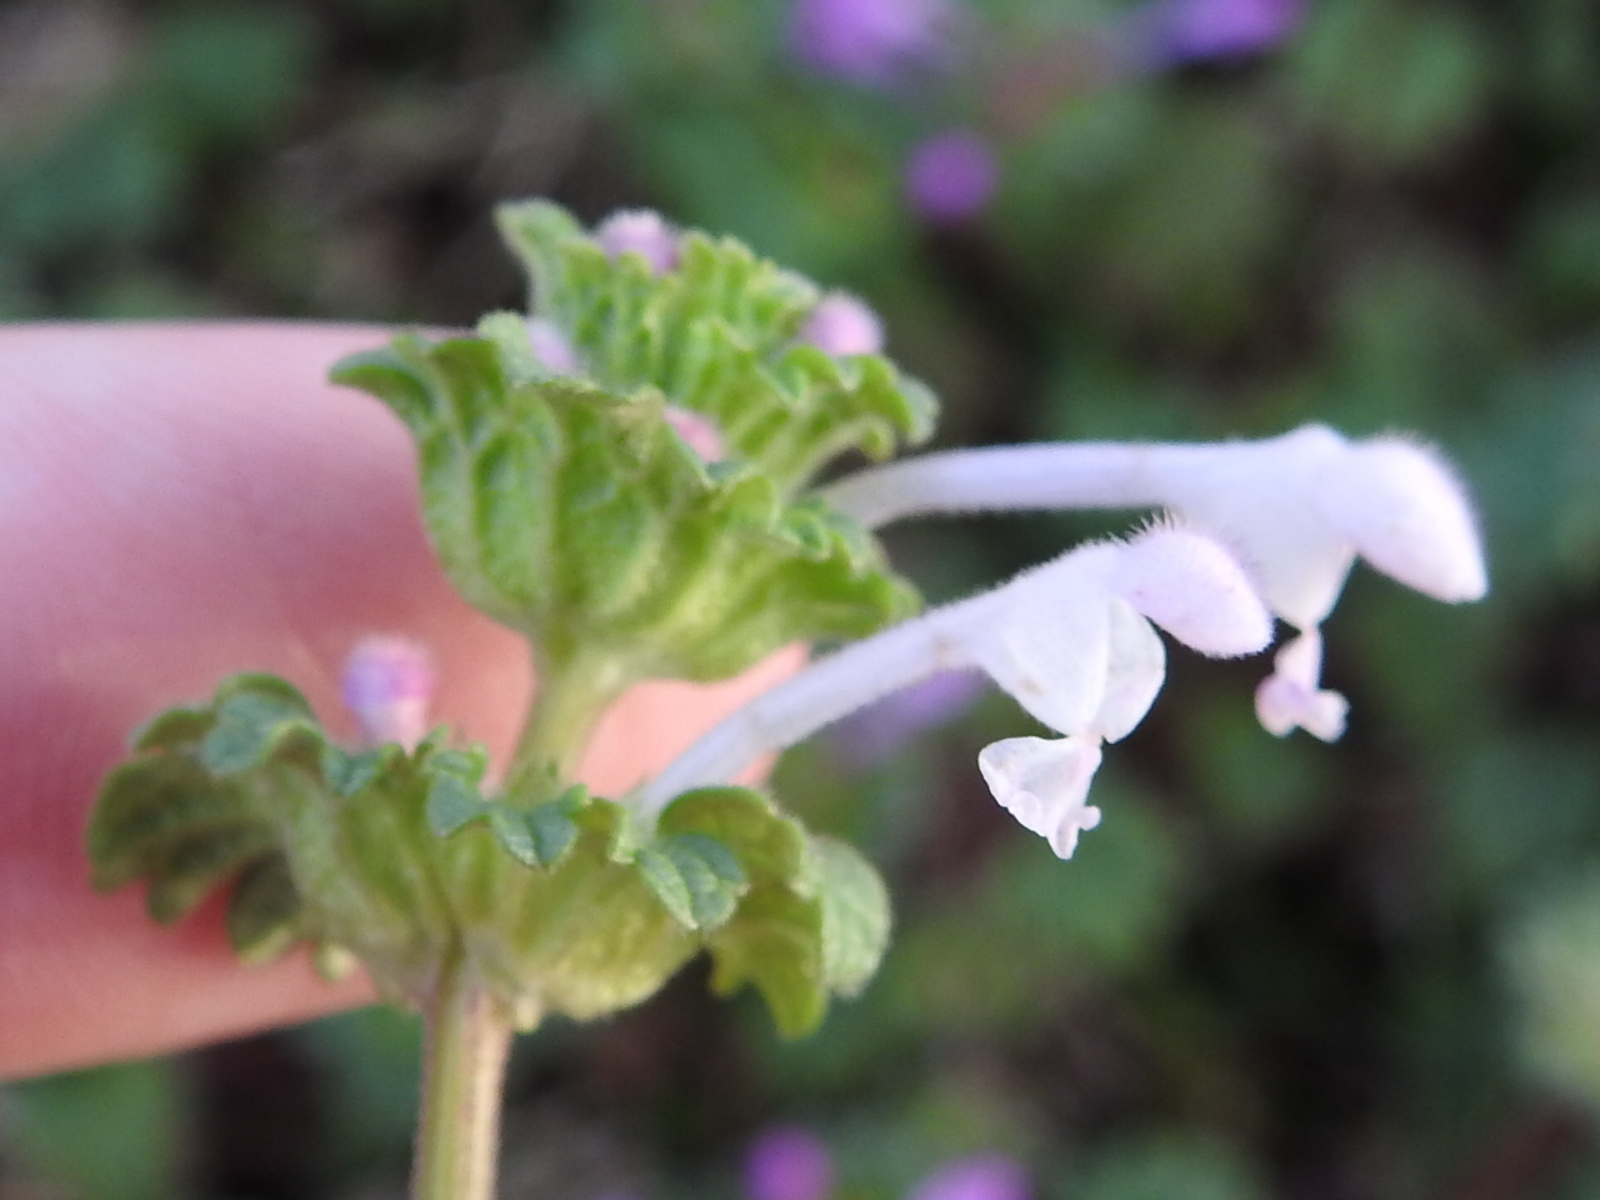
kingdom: Plantae
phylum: Tracheophyta
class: Magnoliopsida
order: Lamiales
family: Lamiaceae
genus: Lamium
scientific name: Lamium amplexicaule
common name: Henbit dead-nettle
